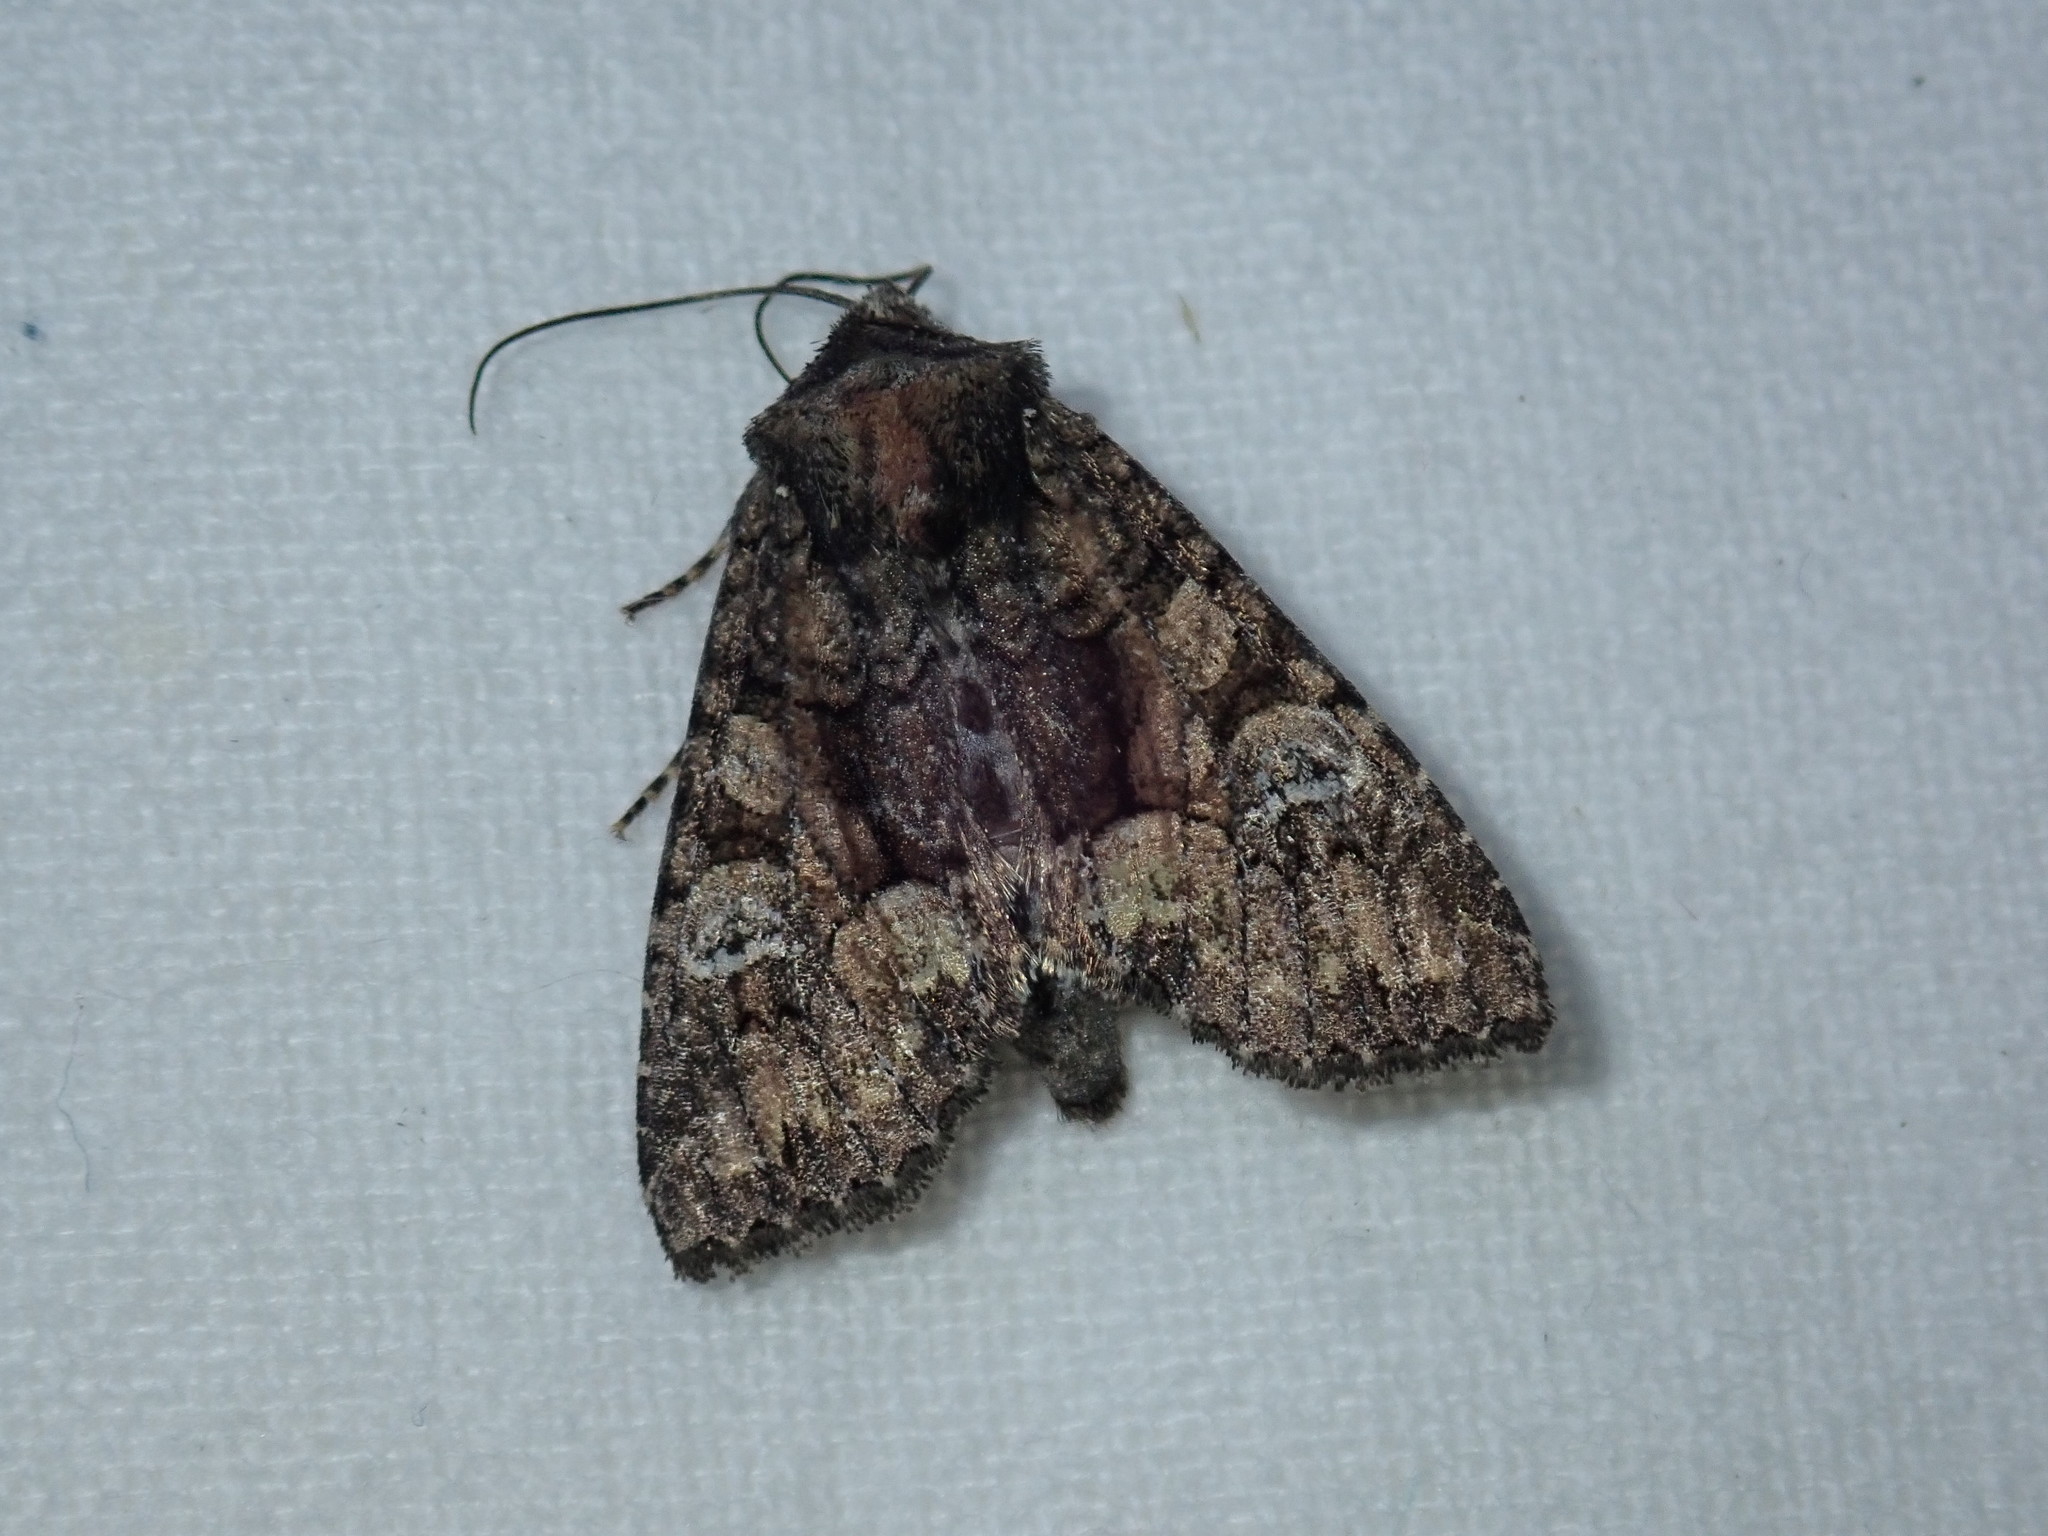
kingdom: Animalia
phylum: Arthropoda
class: Insecta
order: Lepidoptera
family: Noctuidae
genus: Fishia
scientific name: Fishia illocata
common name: Wandering brocade moth
